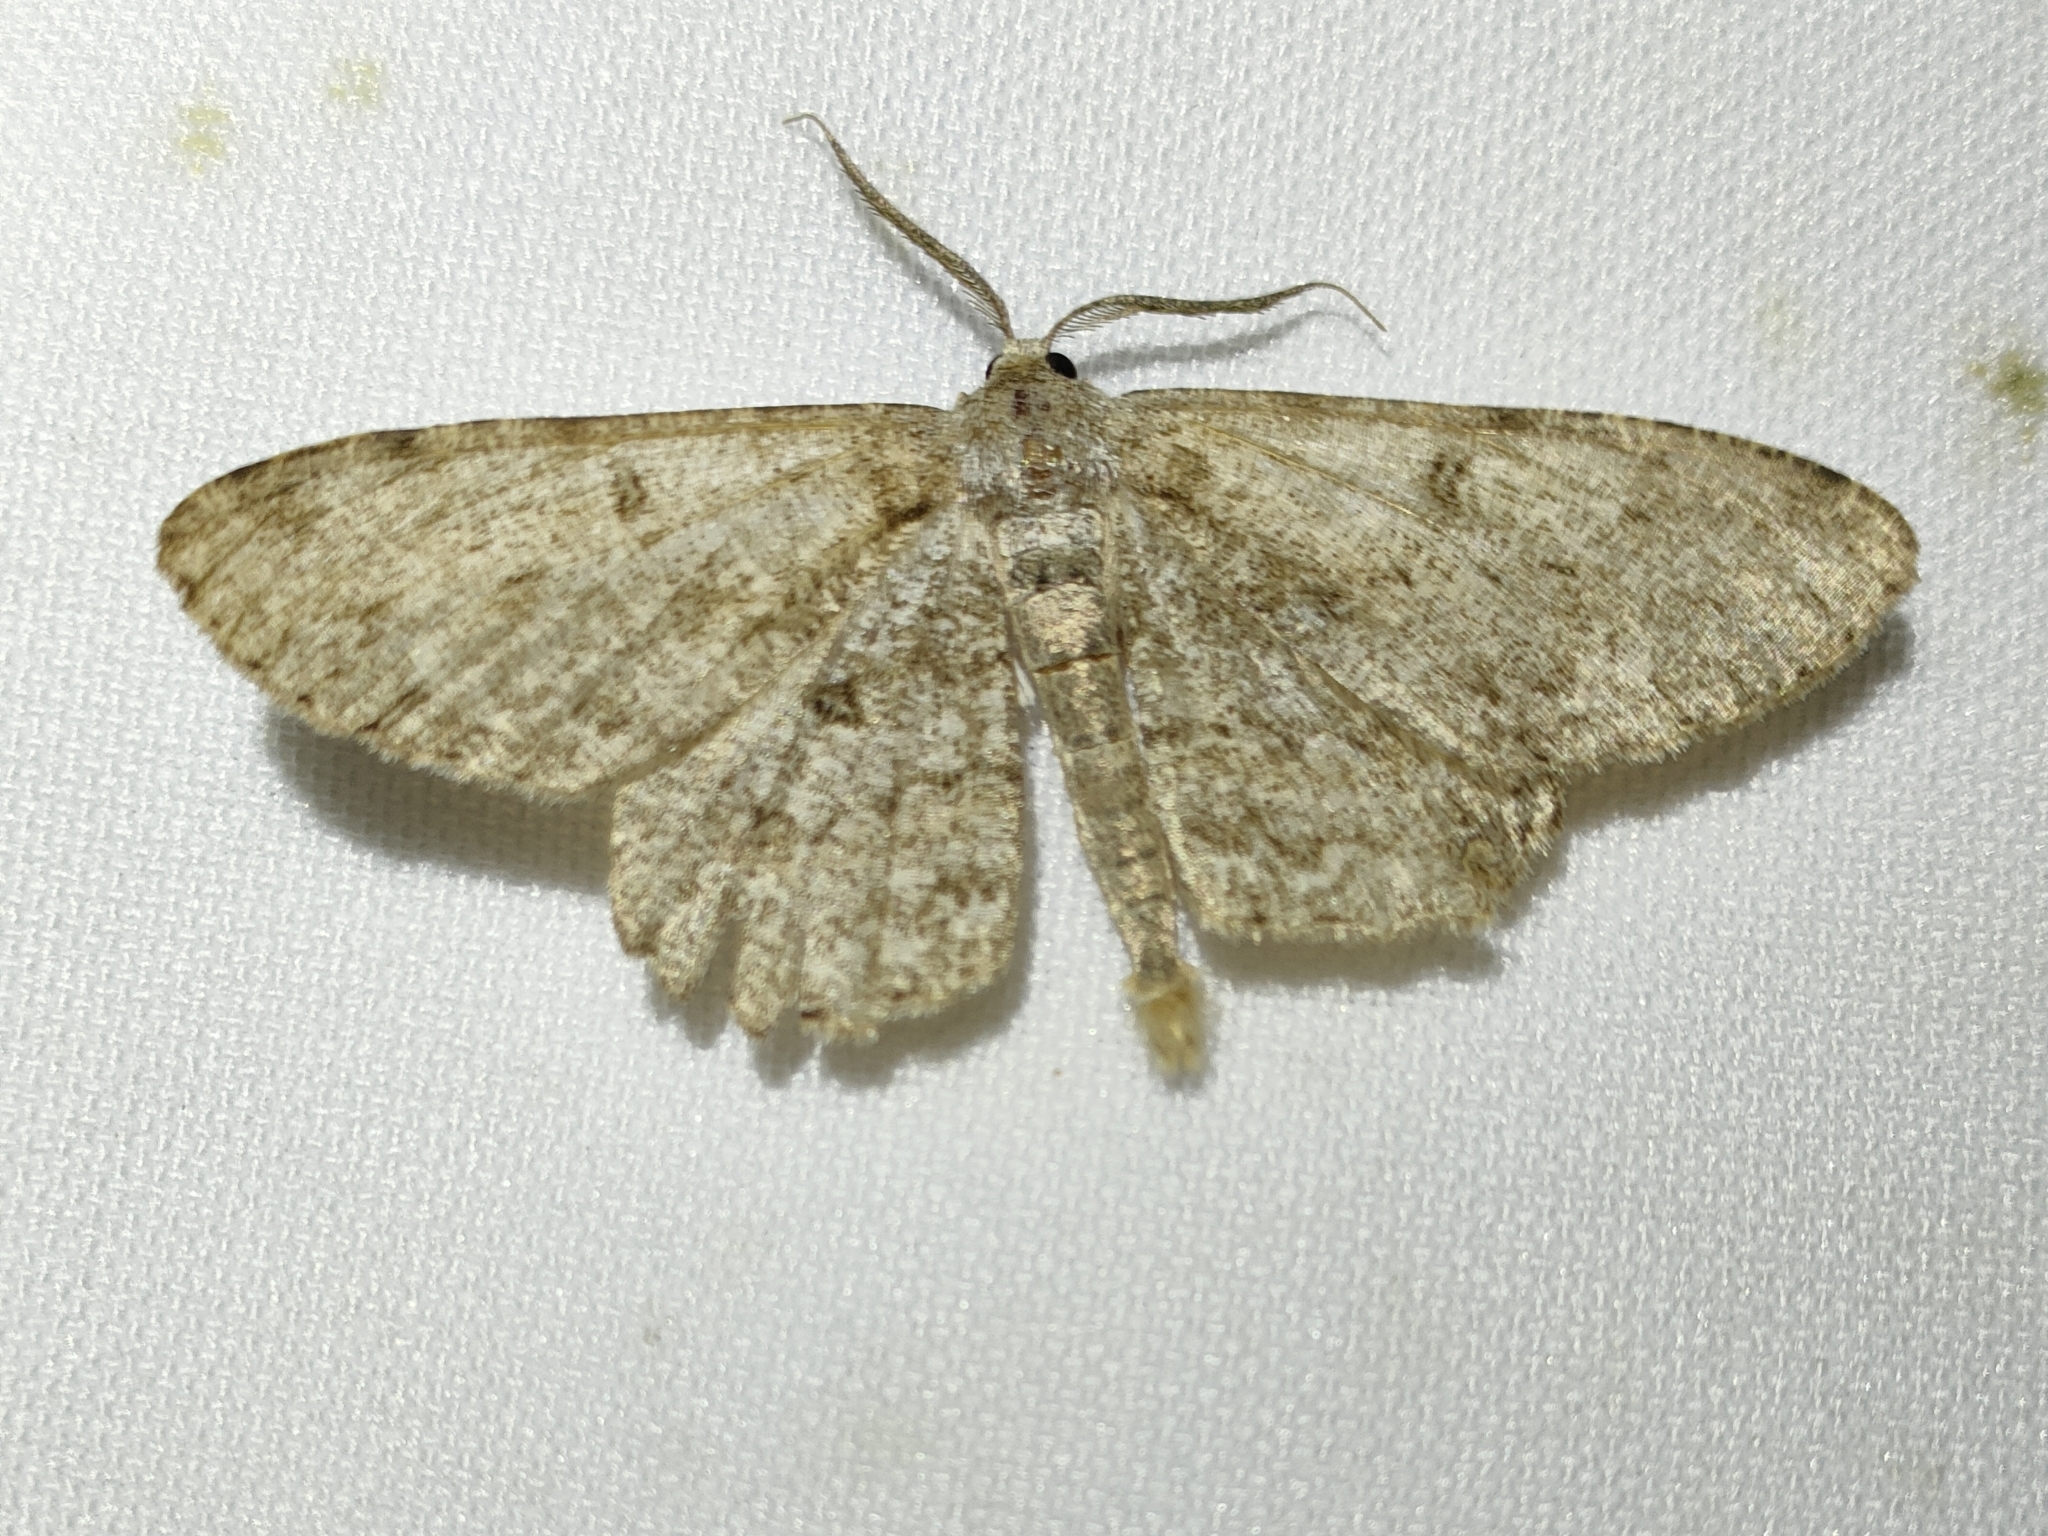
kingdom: Animalia
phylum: Arthropoda
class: Insecta
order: Lepidoptera
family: Geometridae
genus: Hypomecis
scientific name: Hypomecis punctinalis
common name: Pale oak beauty
